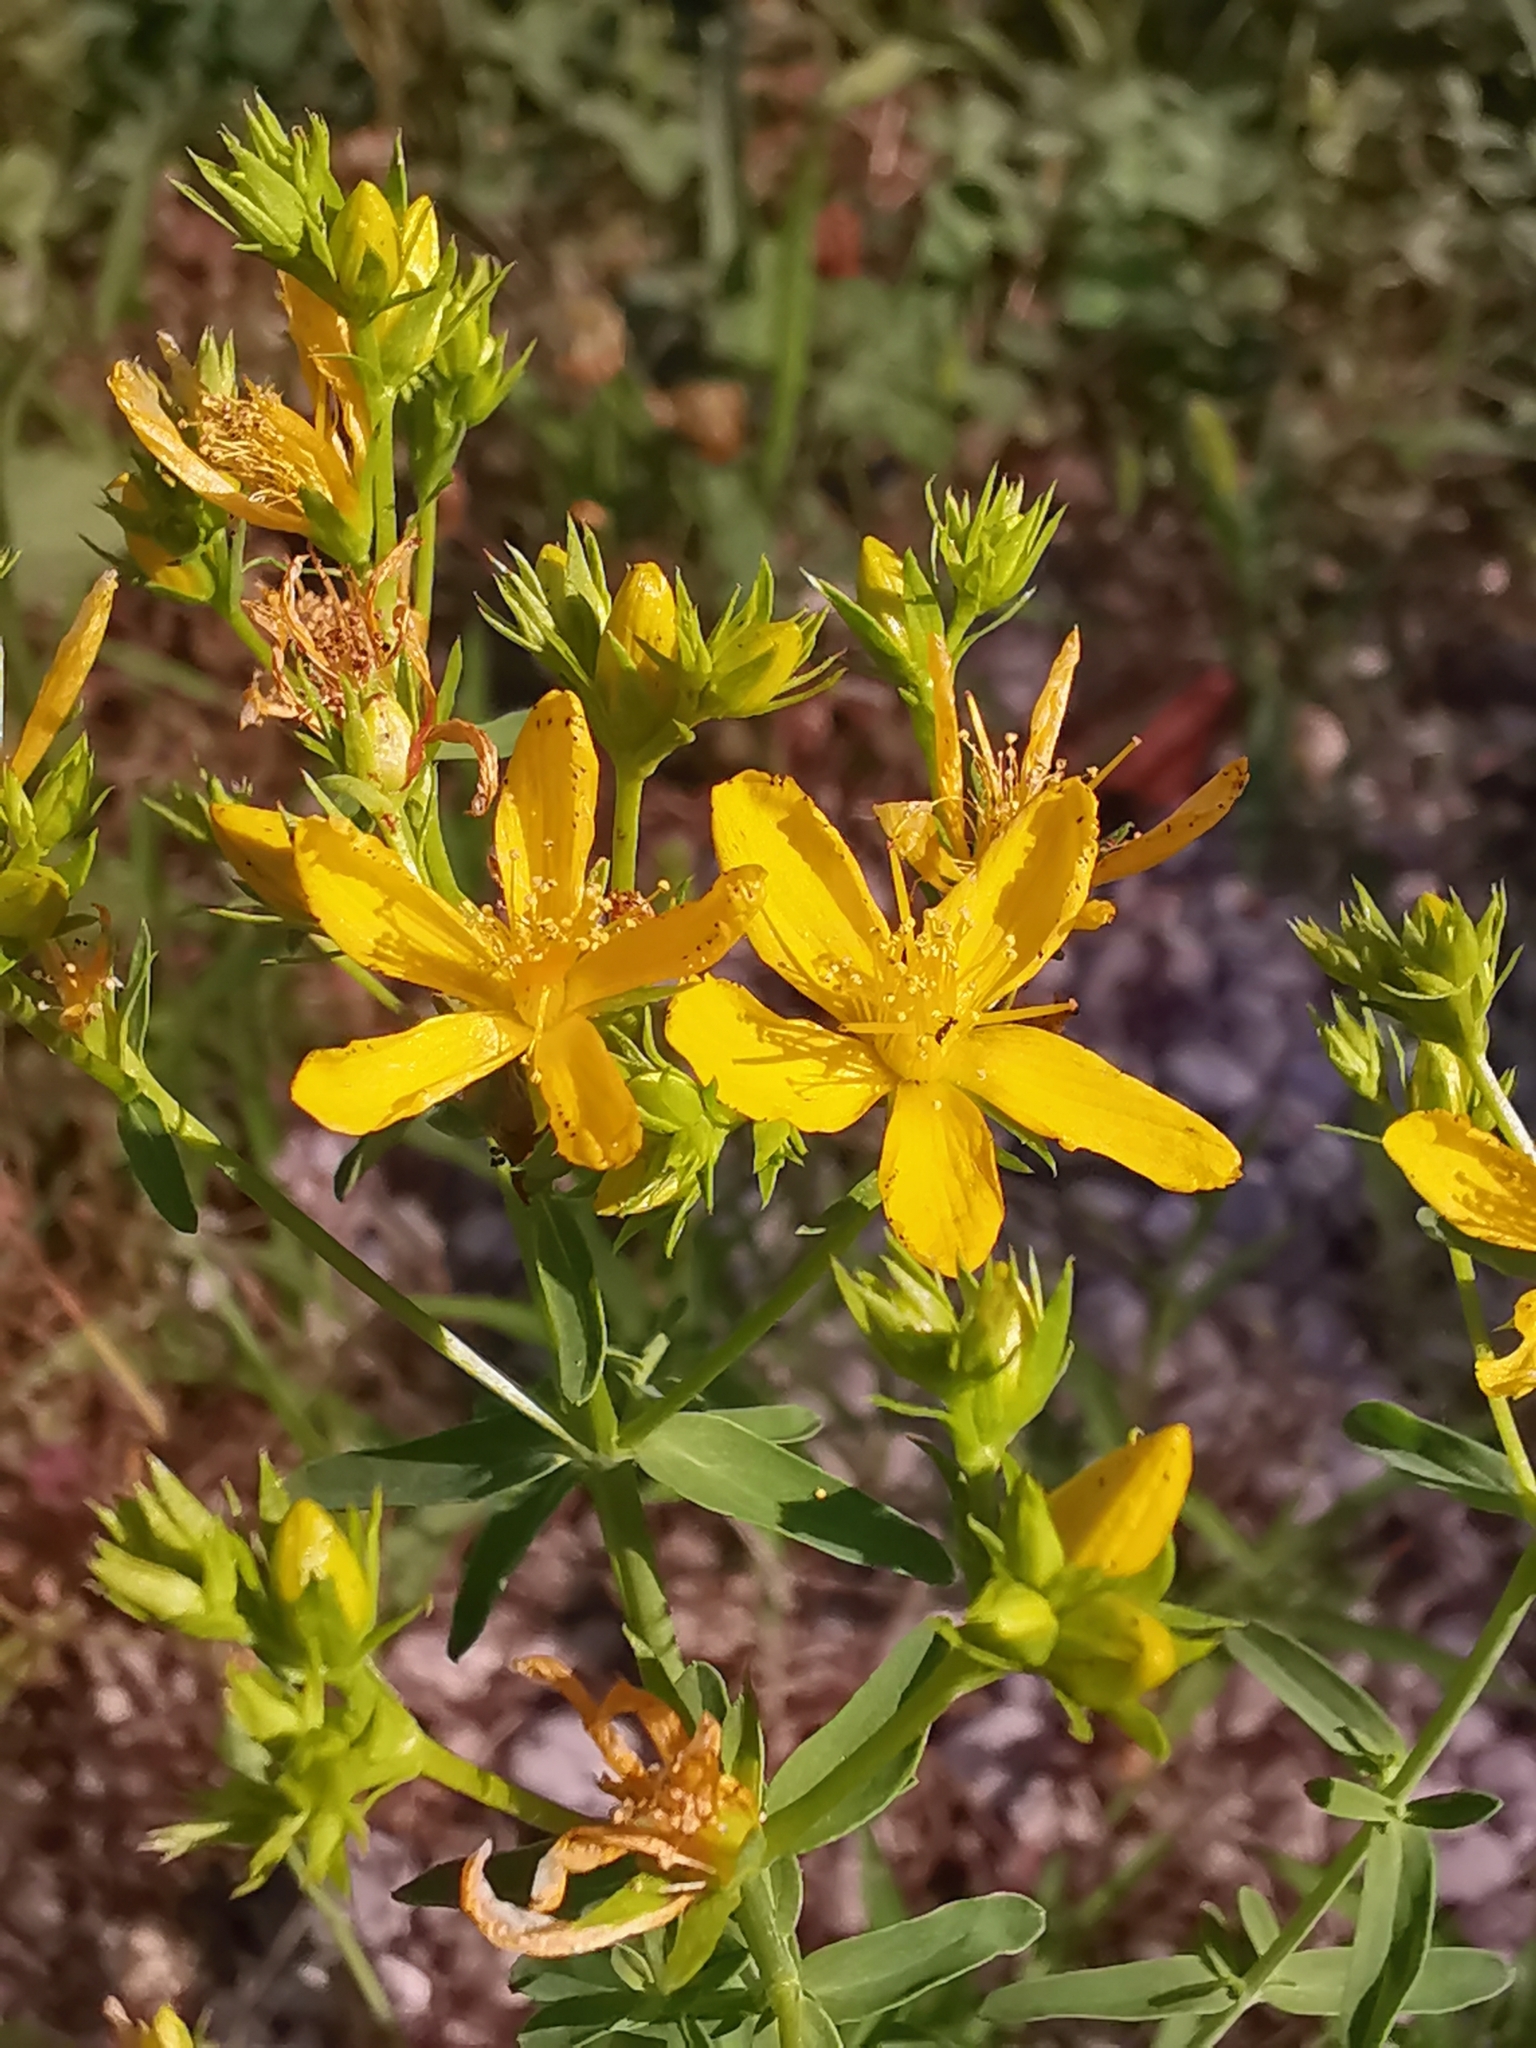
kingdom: Plantae
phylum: Tracheophyta
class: Magnoliopsida
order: Malpighiales
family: Hypericaceae
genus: Hypericum
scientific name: Hypericum perforatum
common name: Common st. johnswort
